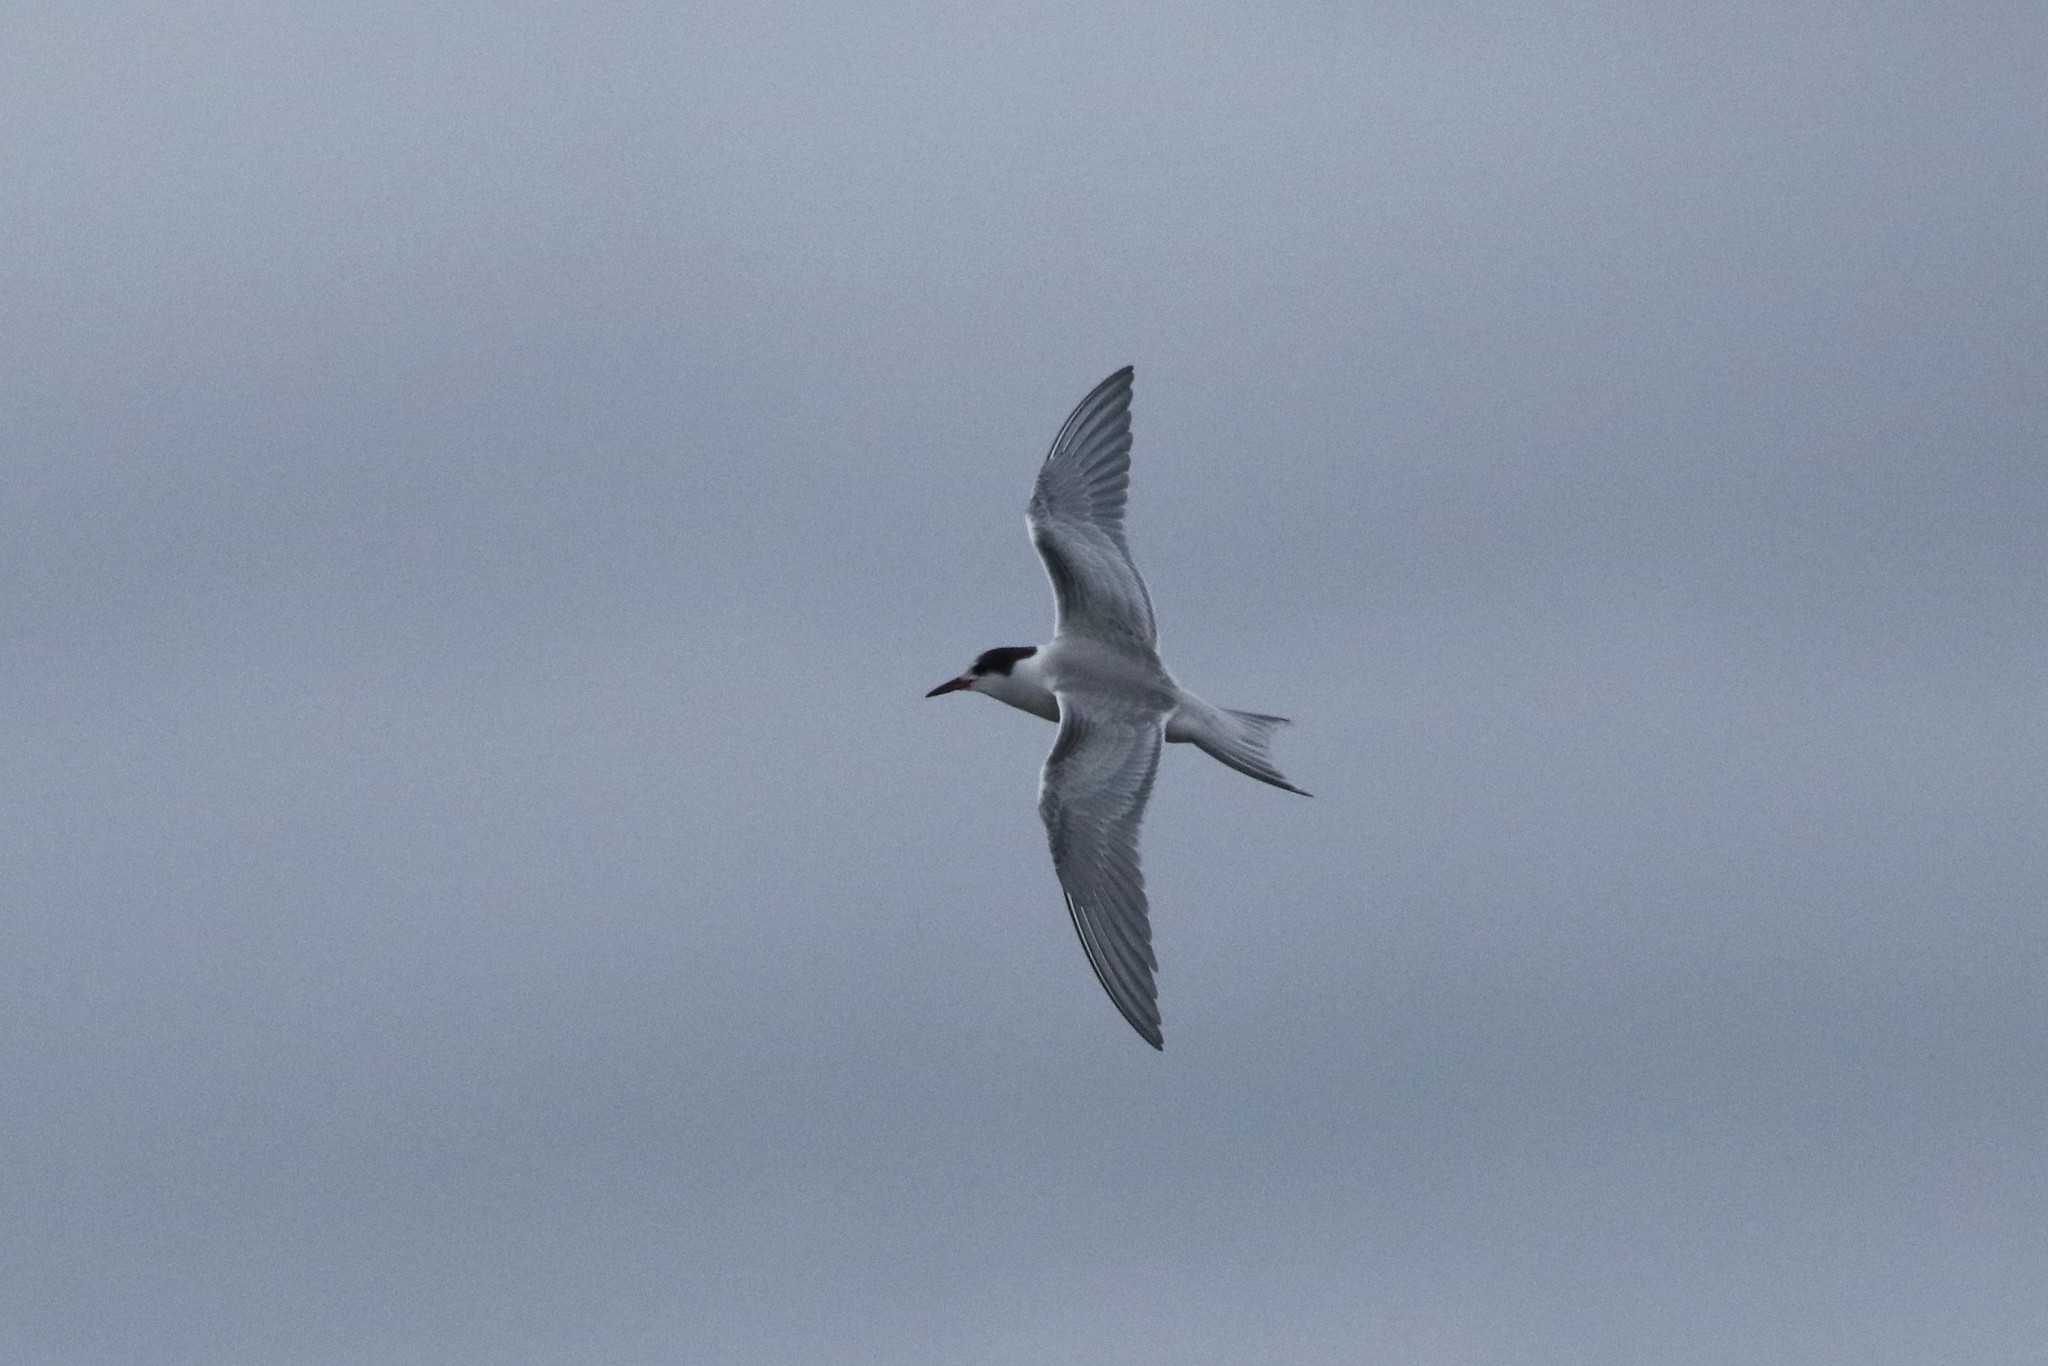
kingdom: Animalia
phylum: Chordata
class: Aves
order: Charadriiformes
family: Laridae
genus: Sterna
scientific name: Sterna hirundo
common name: Common tern
